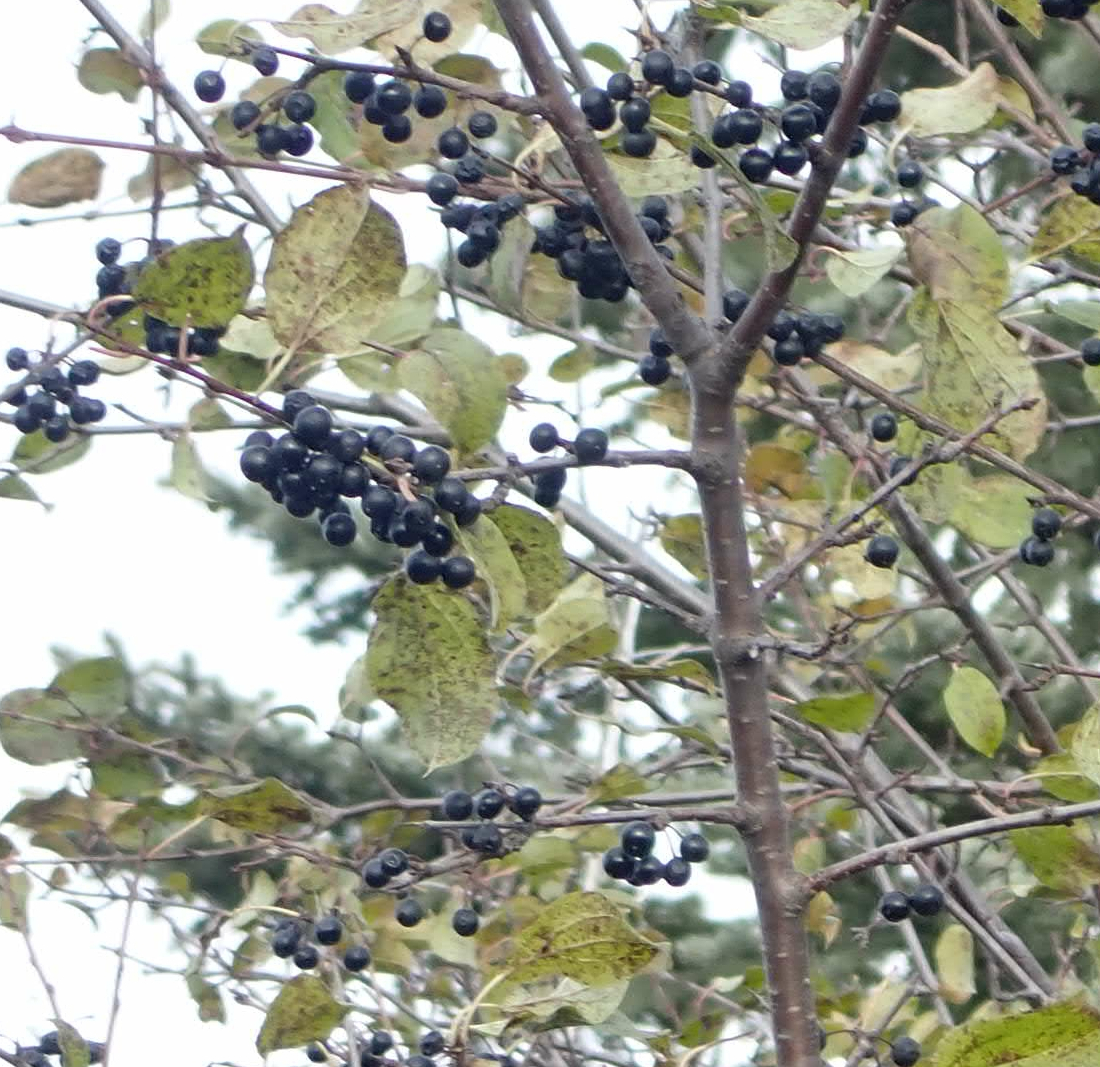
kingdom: Plantae
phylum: Tracheophyta
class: Magnoliopsida
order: Rosales
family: Rhamnaceae
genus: Rhamnus
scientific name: Rhamnus cathartica
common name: Common buckthorn
